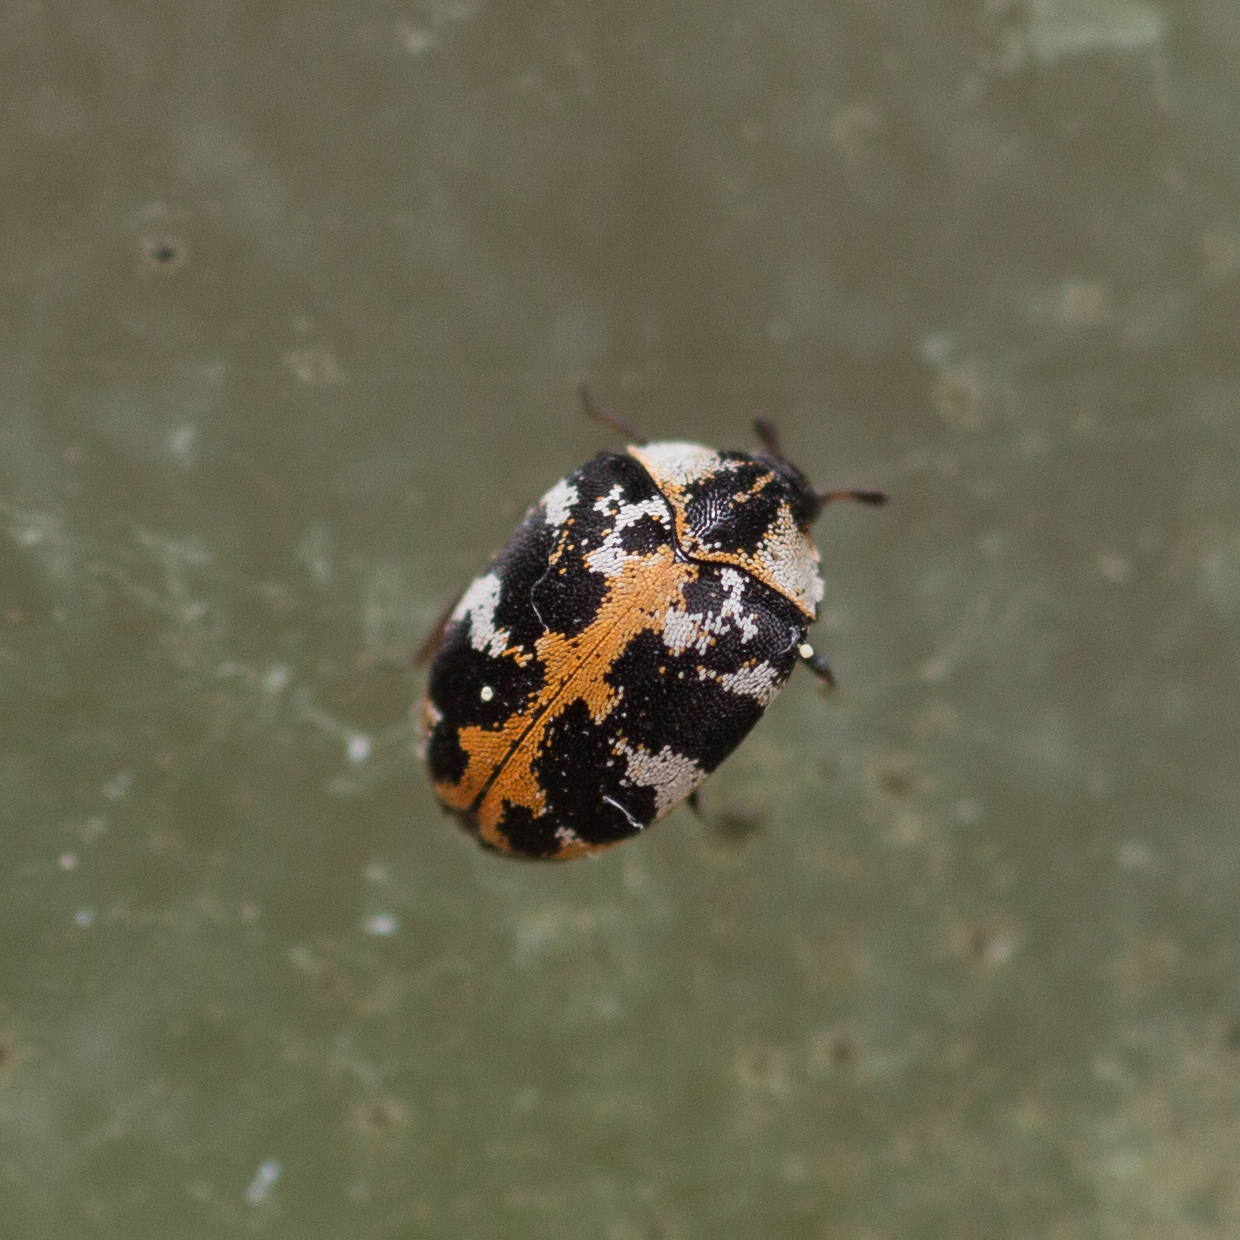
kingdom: Animalia
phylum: Arthropoda
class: Insecta
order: Coleoptera
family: Dermestidae
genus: Anthrenus
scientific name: Anthrenus scrophulariae
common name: Buffalo carpet beetle
